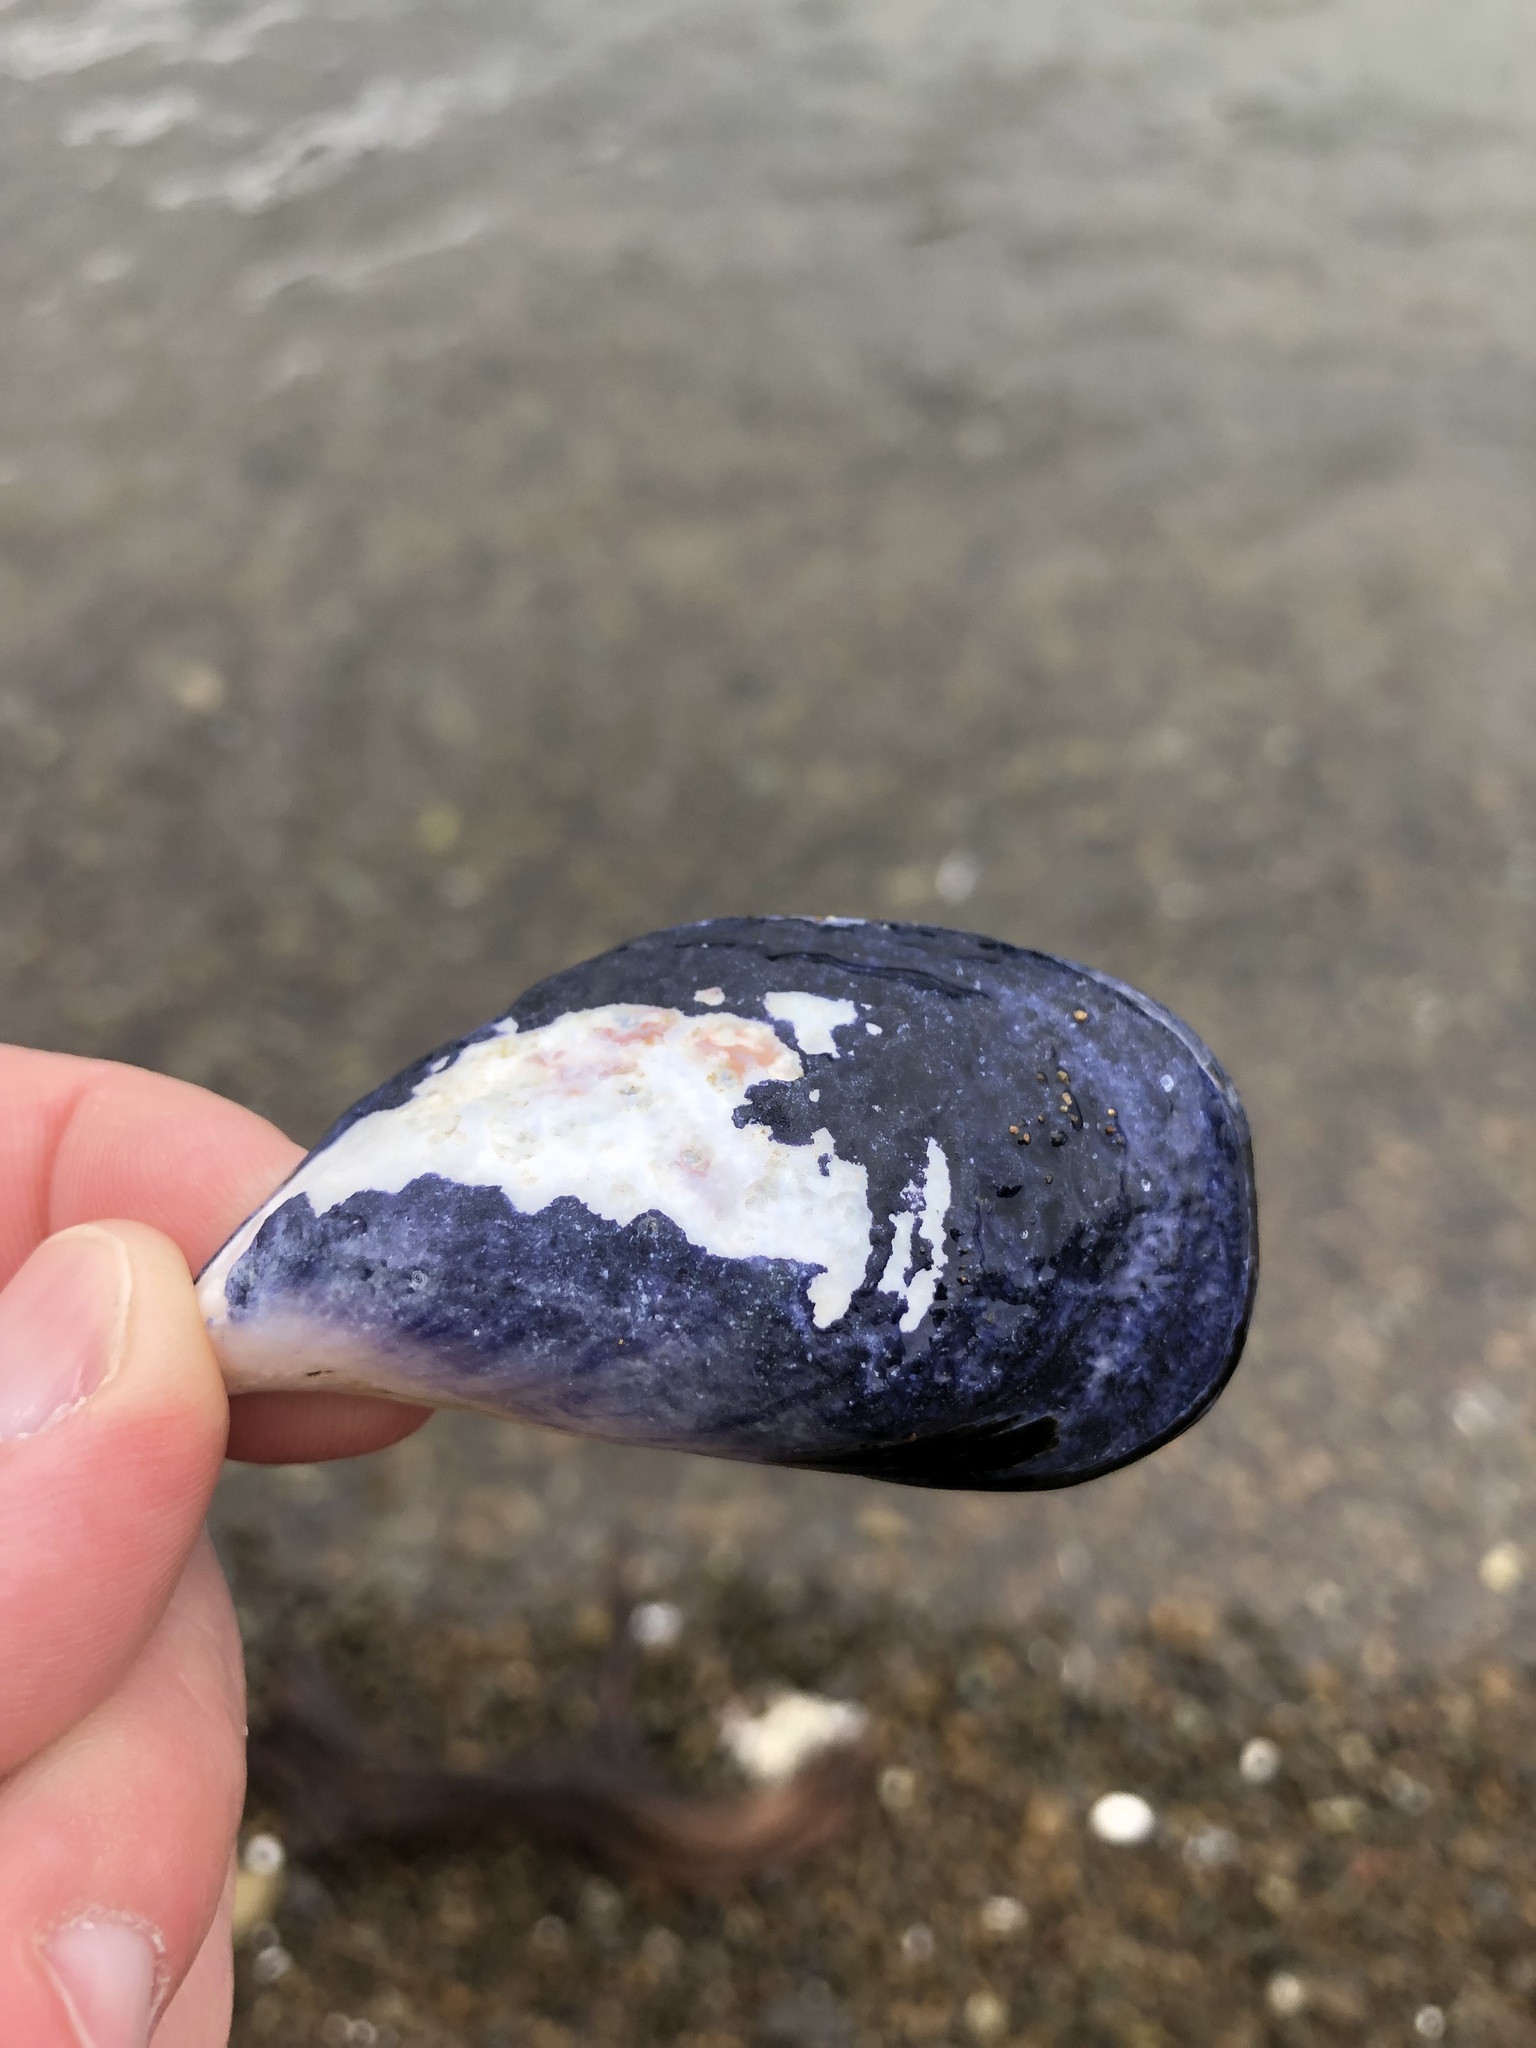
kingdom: Animalia
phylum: Mollusca
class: Bivalvia
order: Mytilida
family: Mytilidae
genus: Mytilus
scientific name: Mytilus planulatus
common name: Australian mussel
